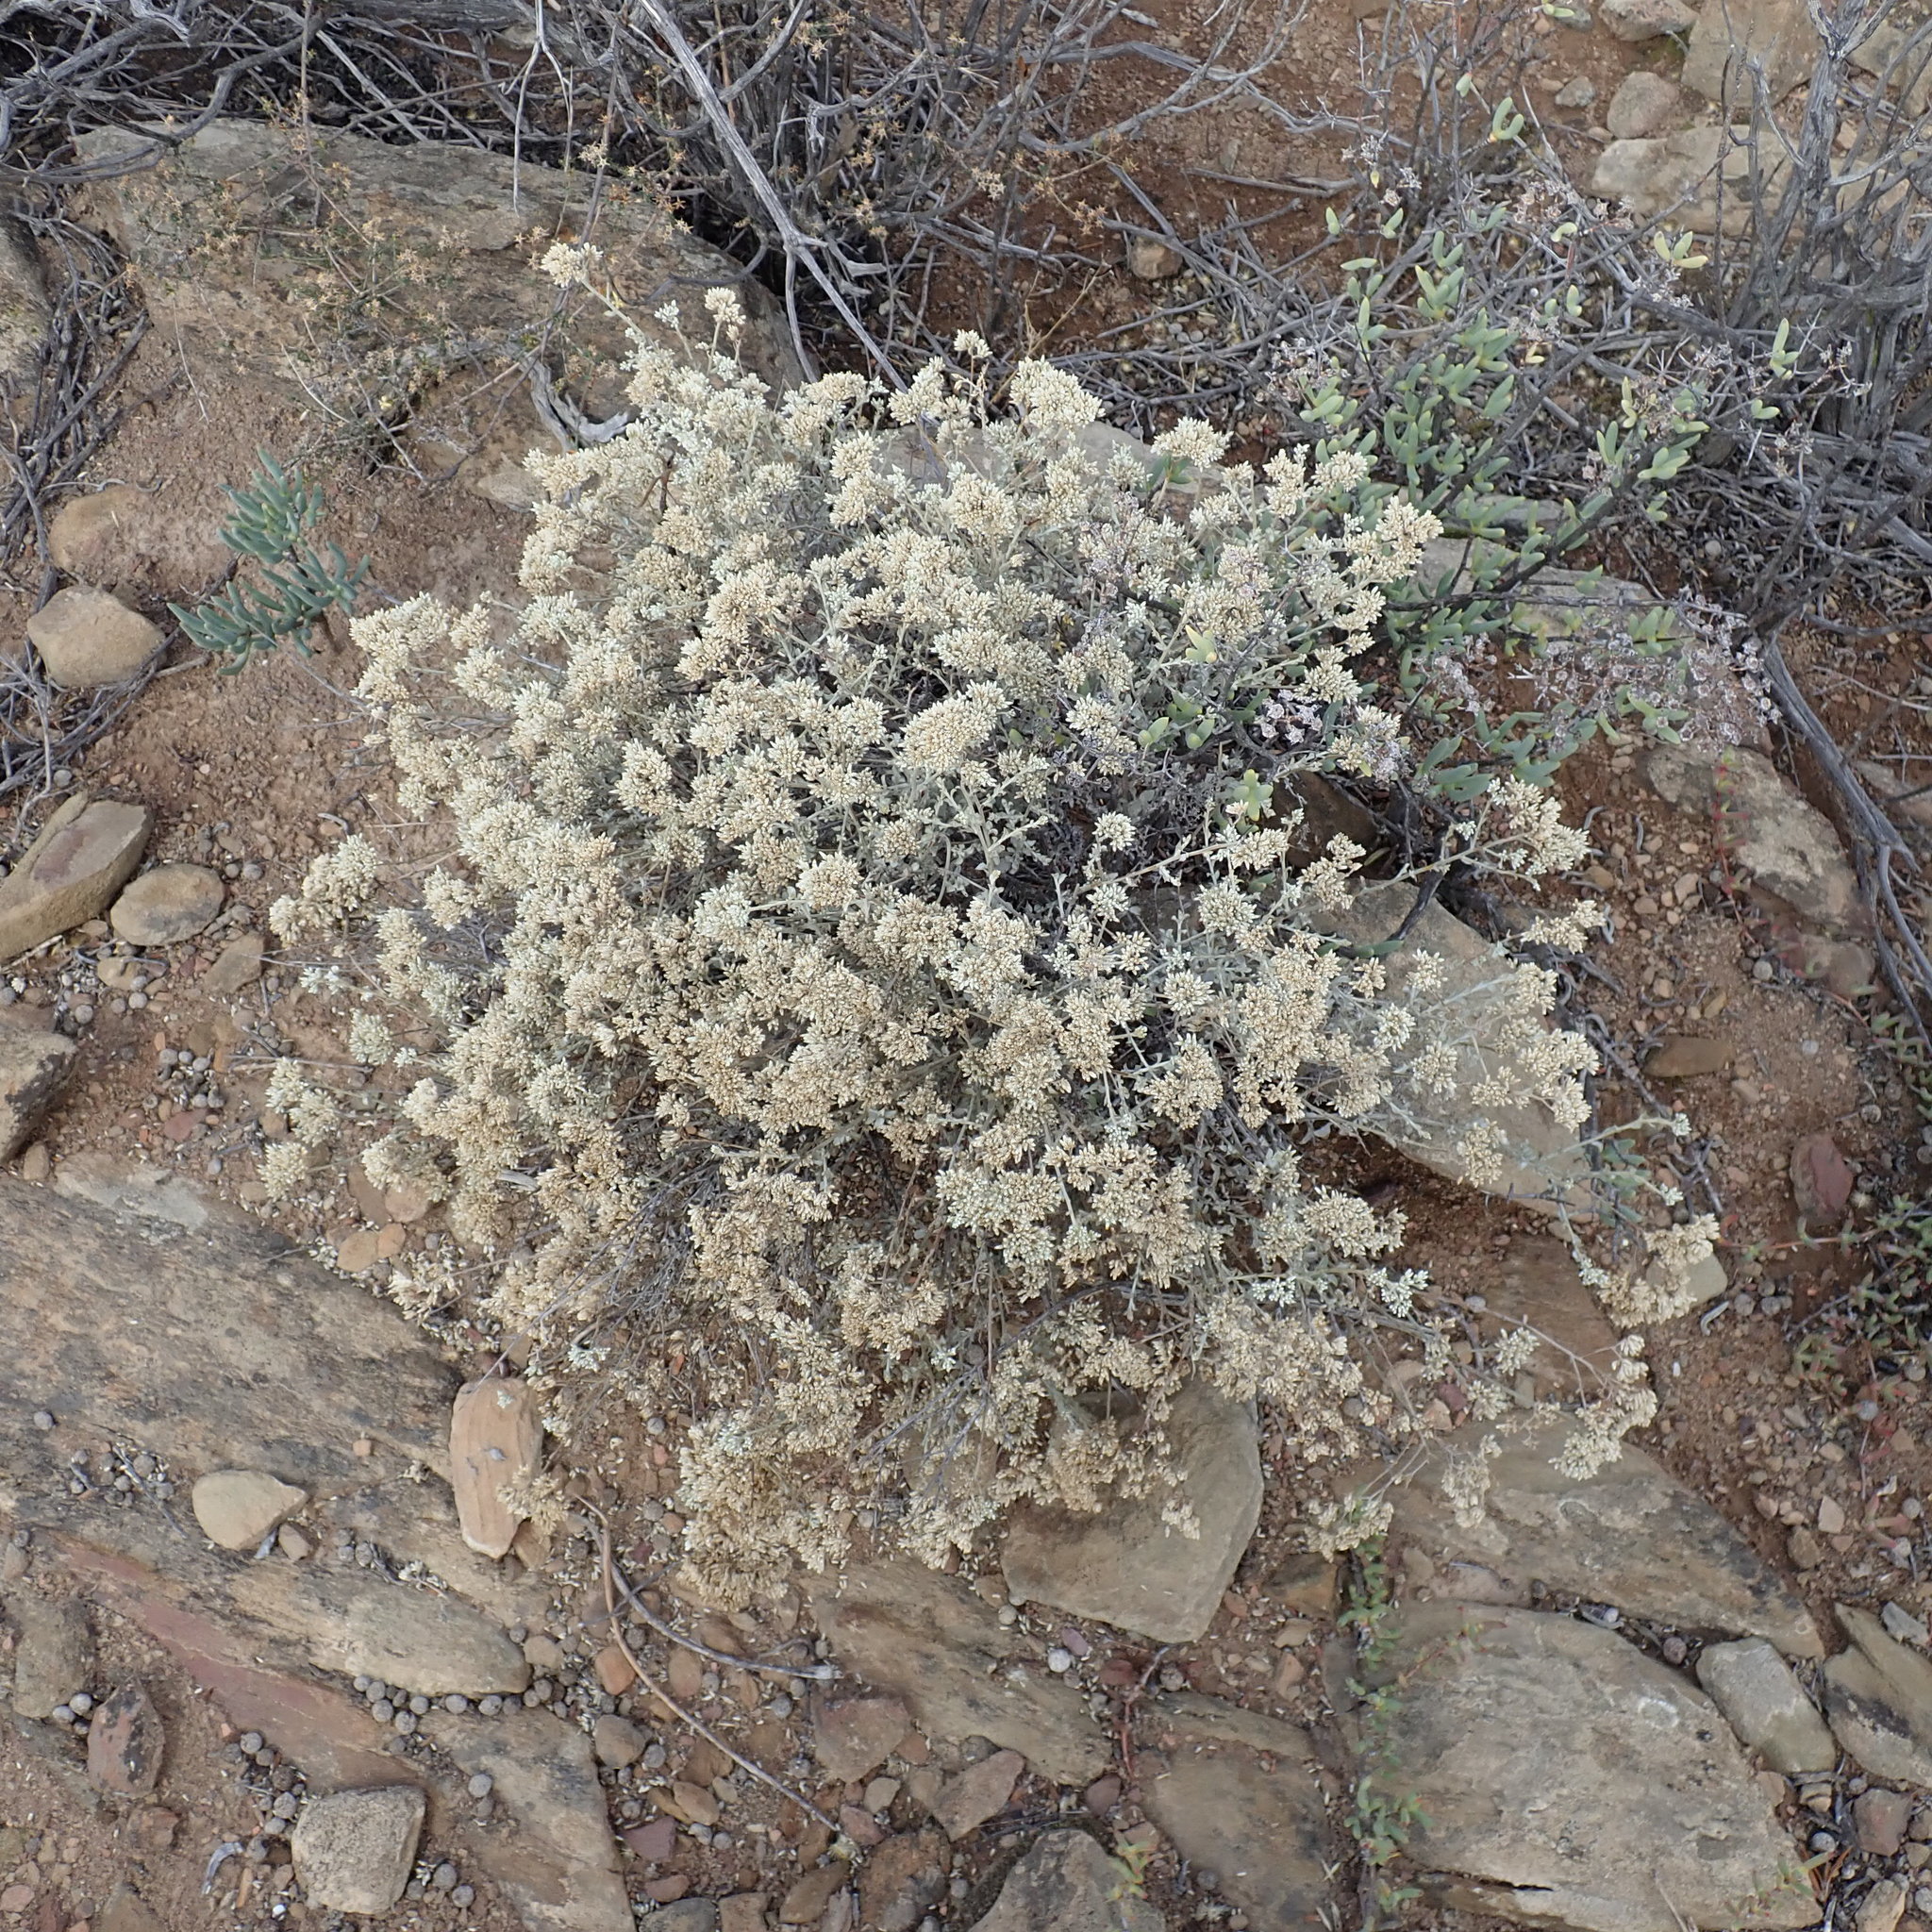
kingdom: Plantae
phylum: Tracheophyta
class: Magnoliopsida
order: Asterales
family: Asteraceae
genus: Helichrysum
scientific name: Helichrysum zeyheri
